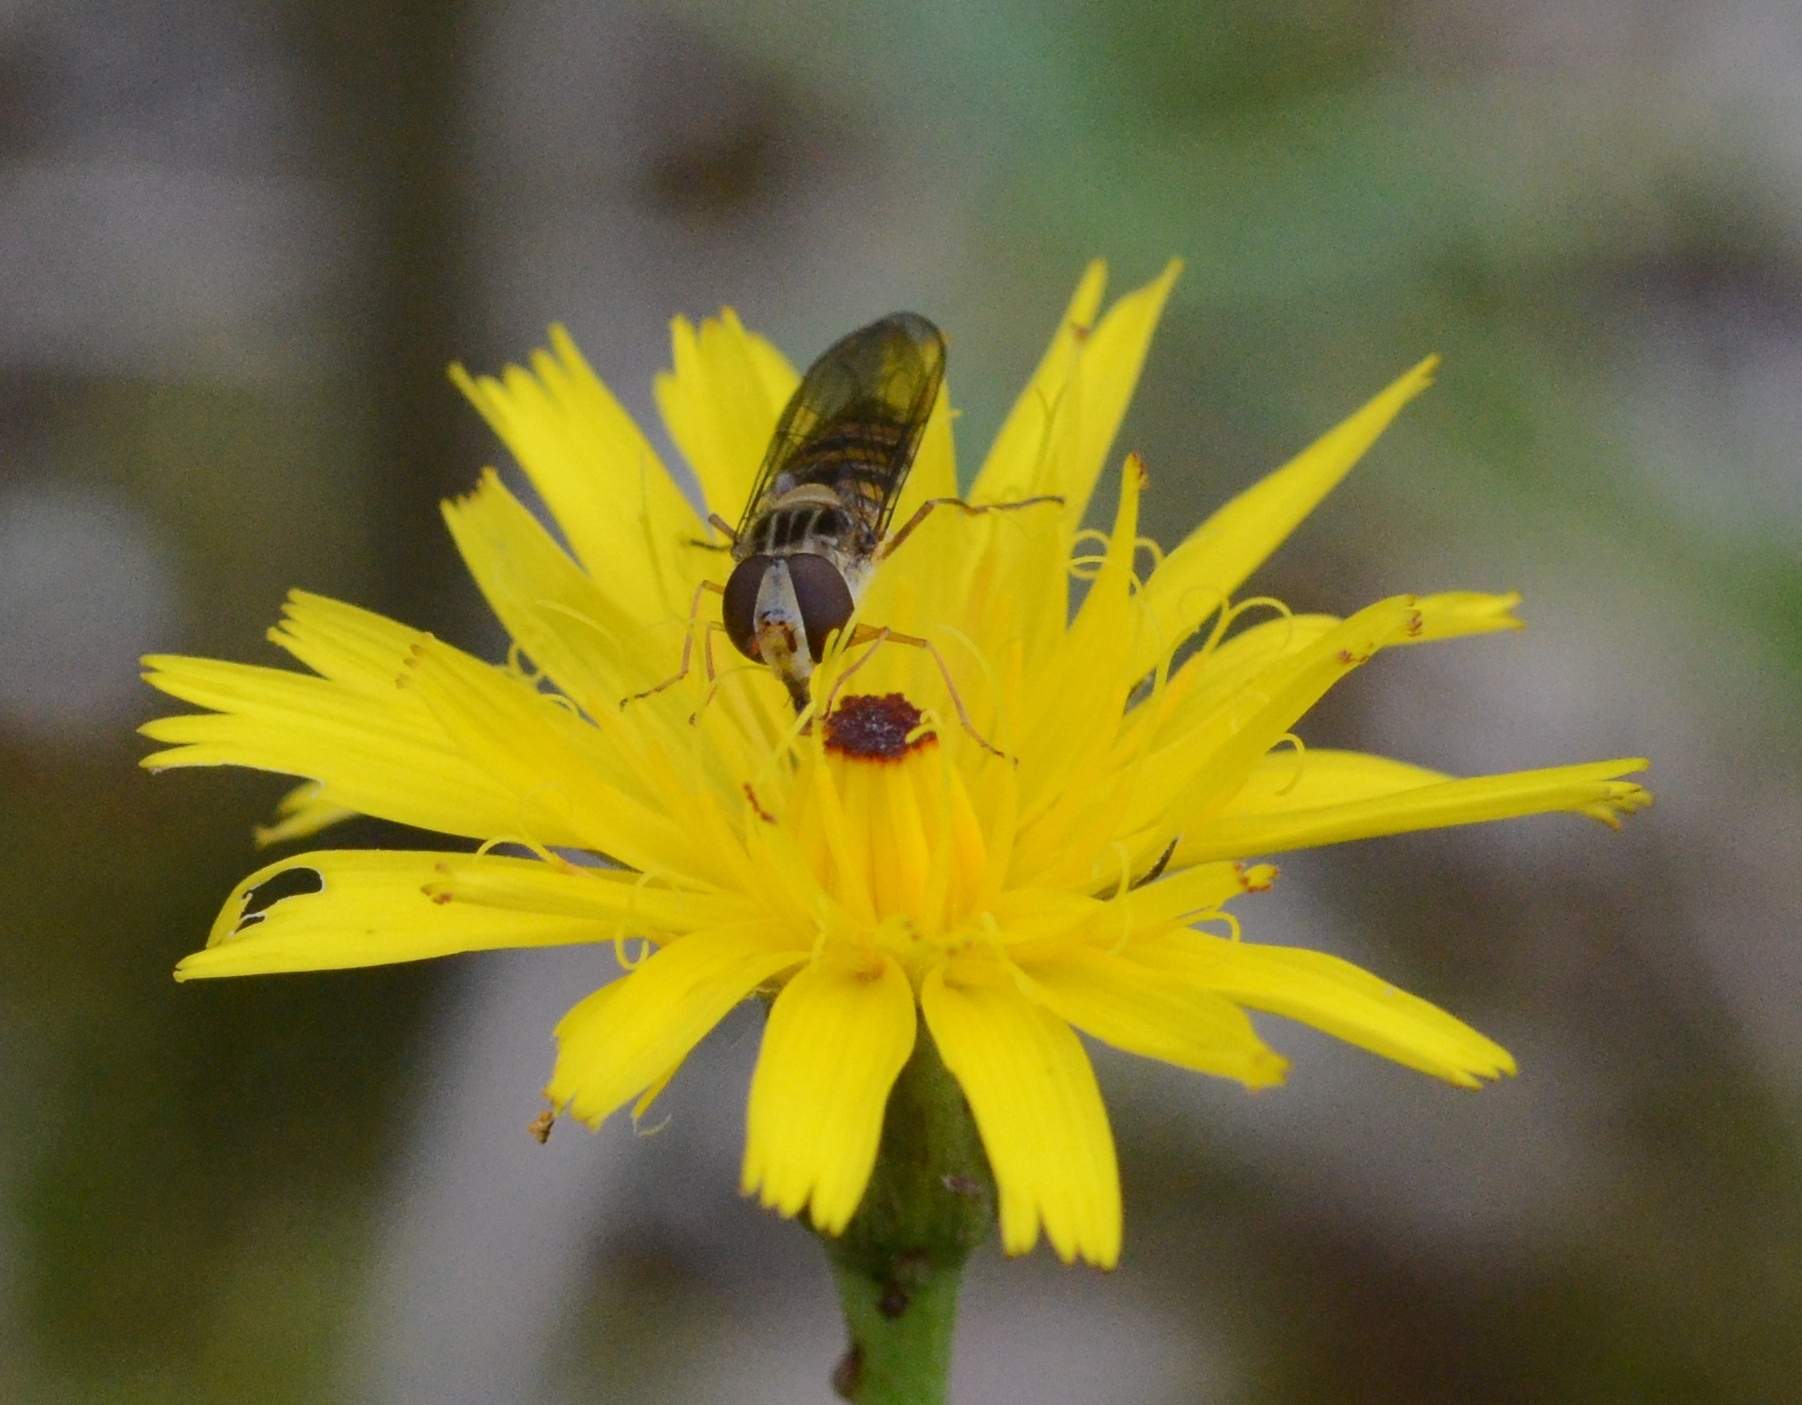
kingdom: Animalia
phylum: Arthropoda
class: Insecta
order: Diptera
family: Syrphidae
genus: Episyrphus
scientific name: Episyrphus balteatus
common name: Marmalade hoverfly
